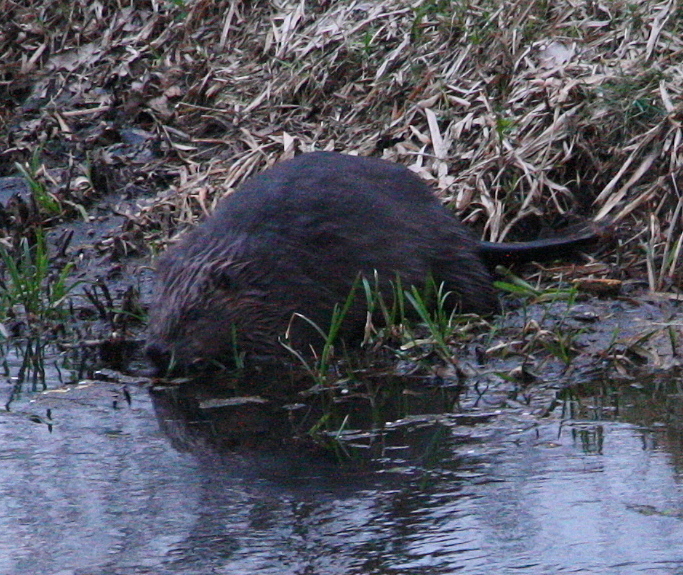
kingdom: Animalia
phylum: Chordata
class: Mammalia
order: Rodentia
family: Castoridae
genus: Castor
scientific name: Castor fiber
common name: Eurasian beaver
